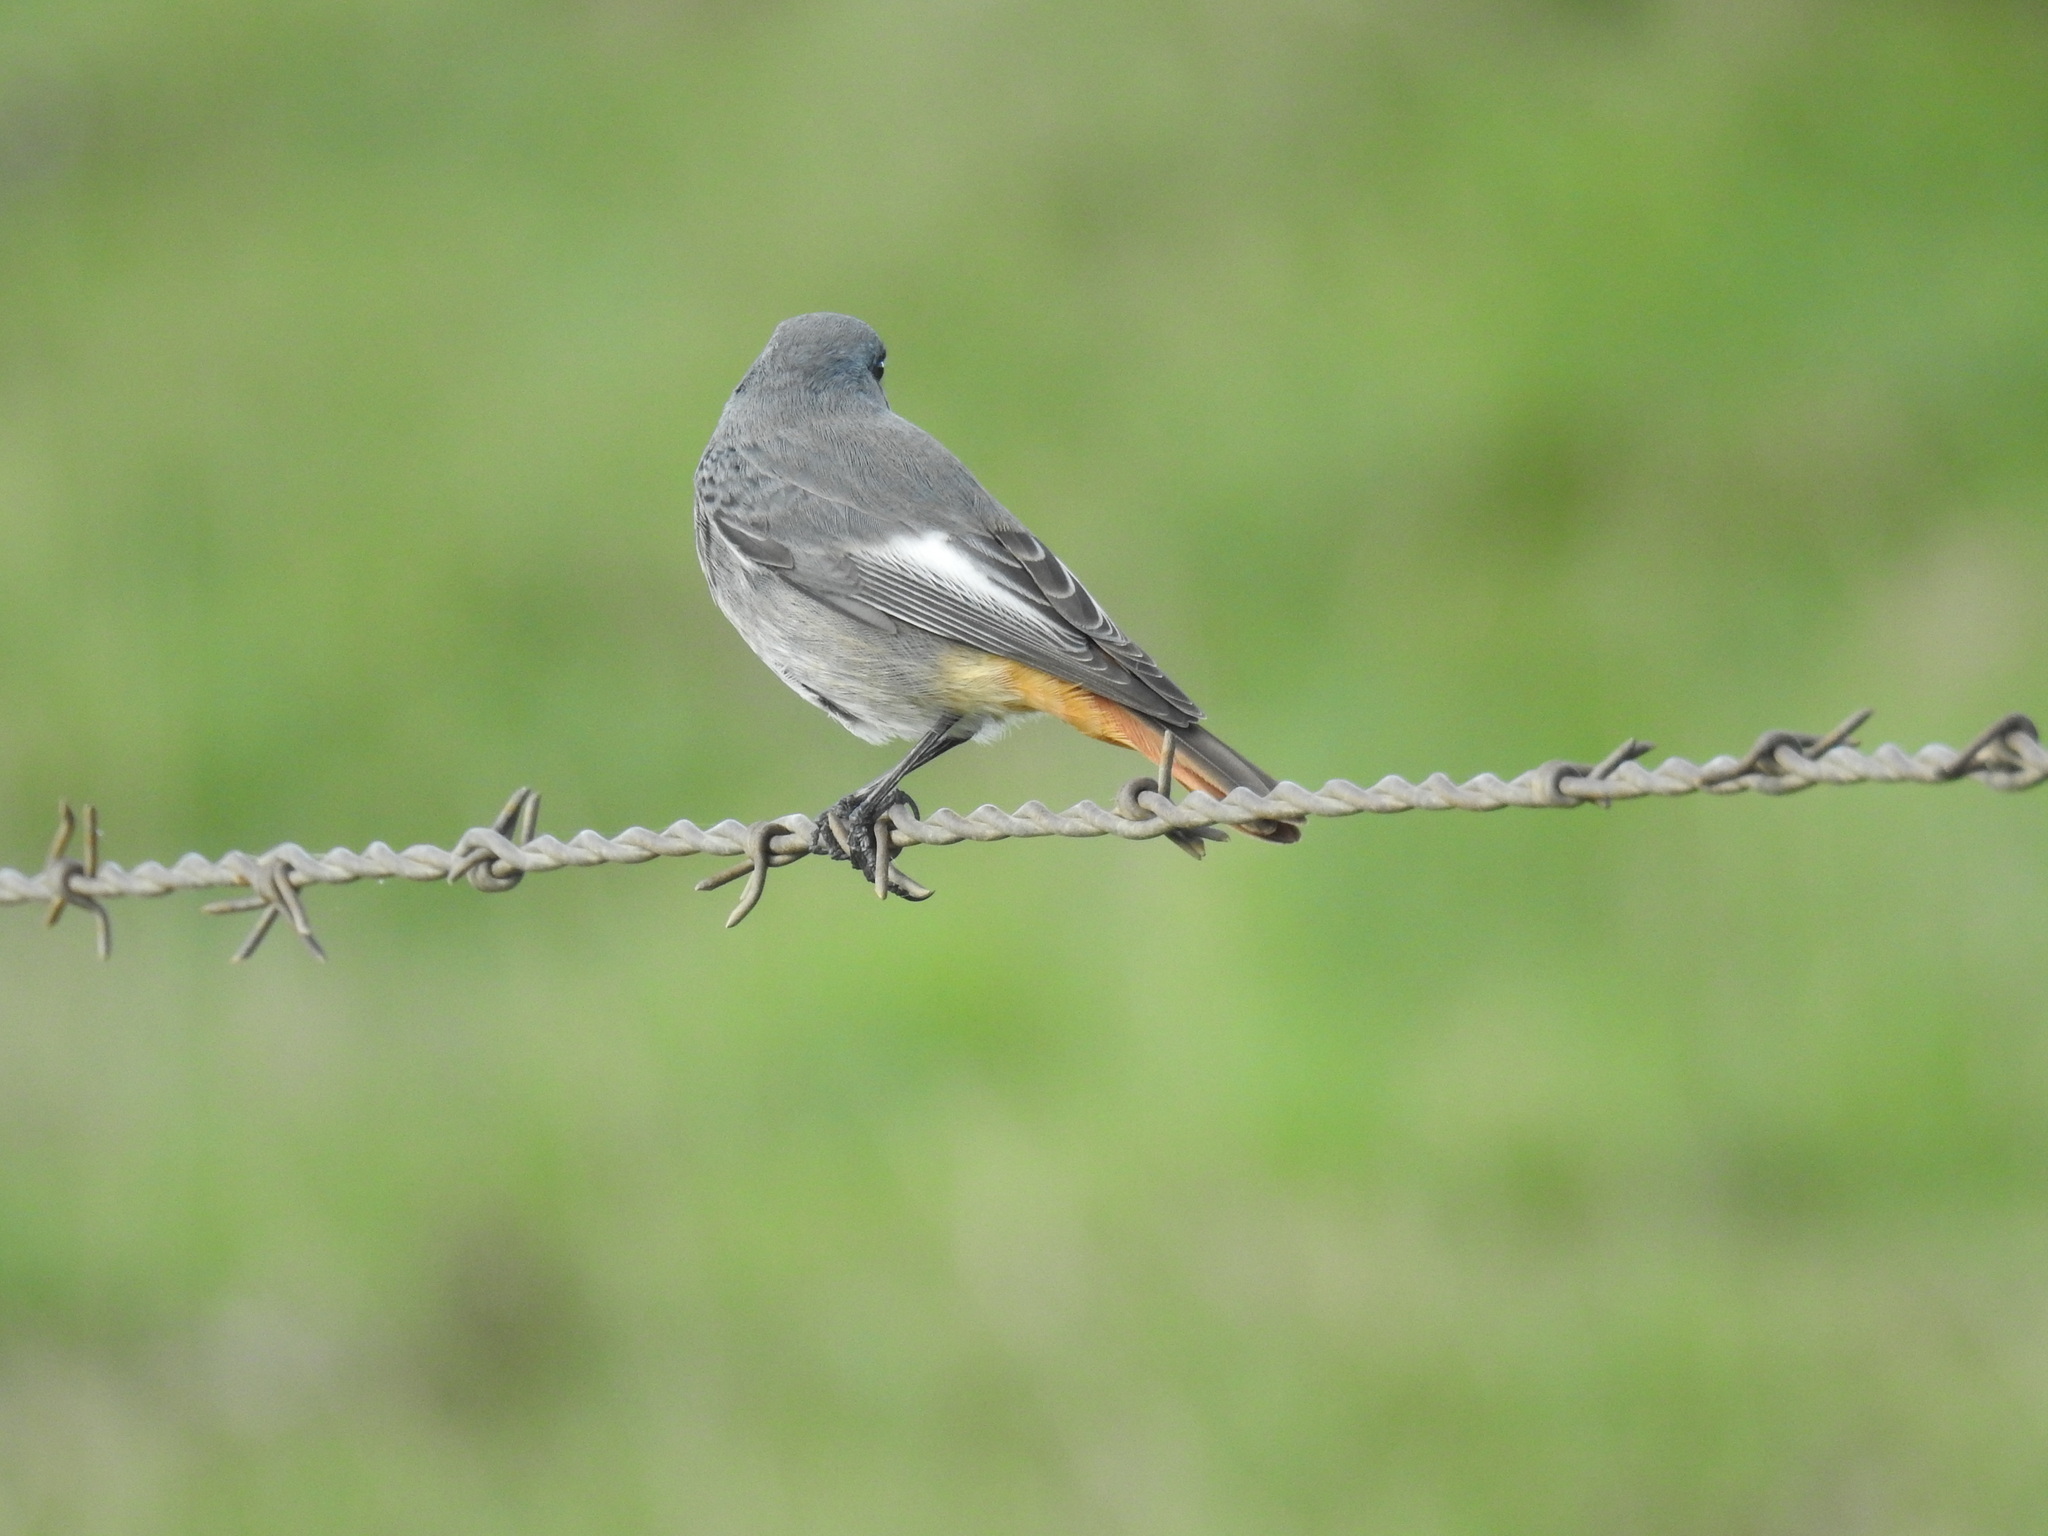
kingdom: Animalia
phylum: Chordata
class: Aves
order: Passeriformes
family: Muscicapidae
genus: Phoenicurus
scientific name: Phoenicurus ochruros
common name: Black redstart
